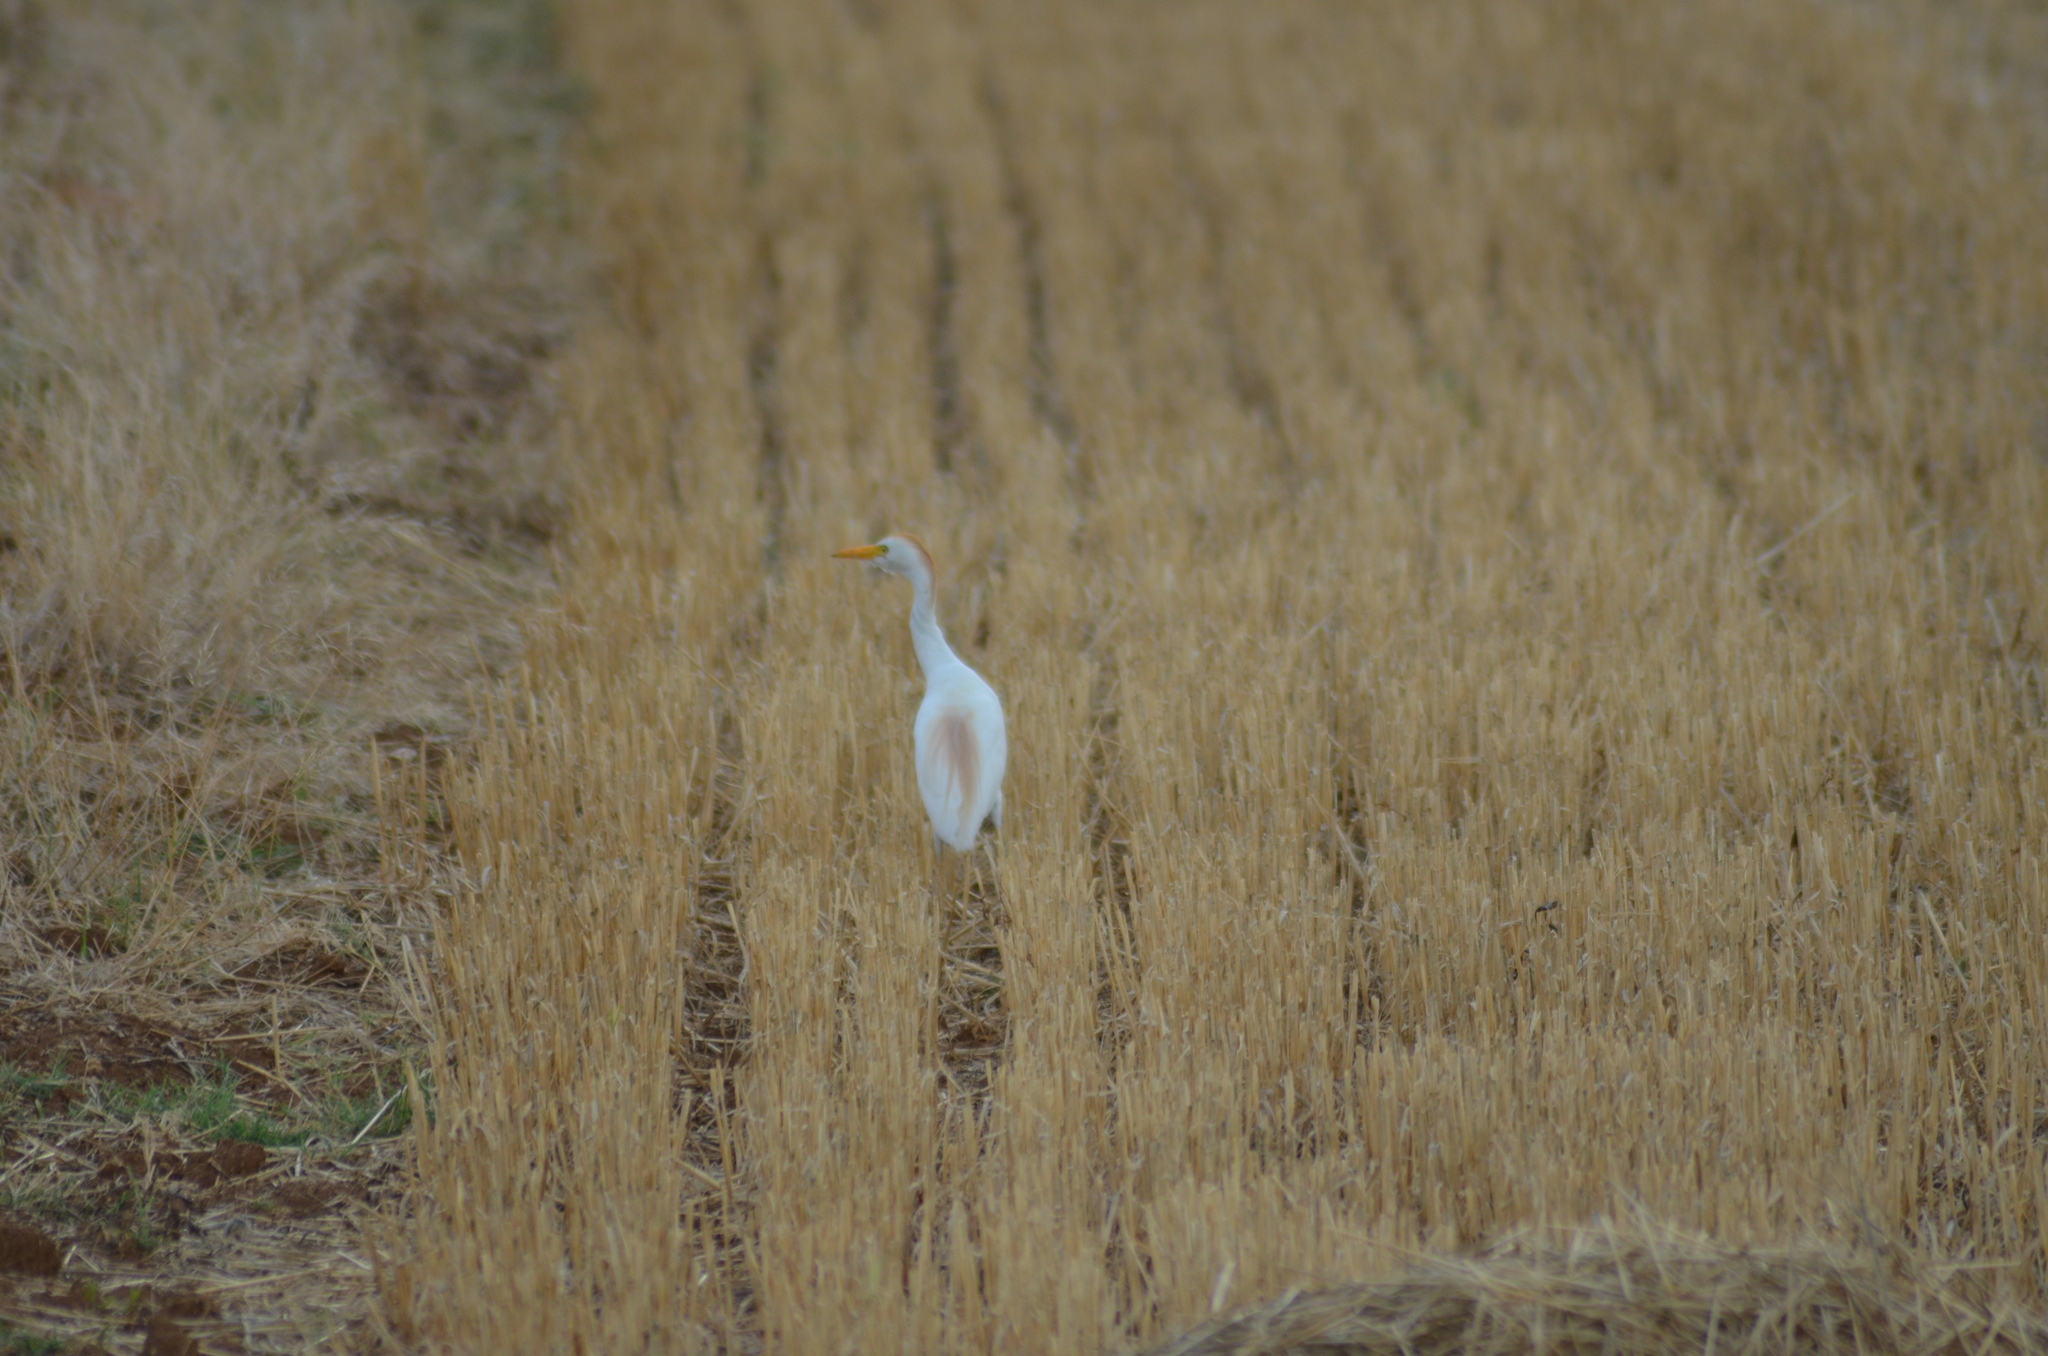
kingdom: Animalia
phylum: Chordata
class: Aves
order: Pelecaniformes
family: Ardeidae
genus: Bubulcus
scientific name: Bubulcus ibis
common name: Cattle egret
